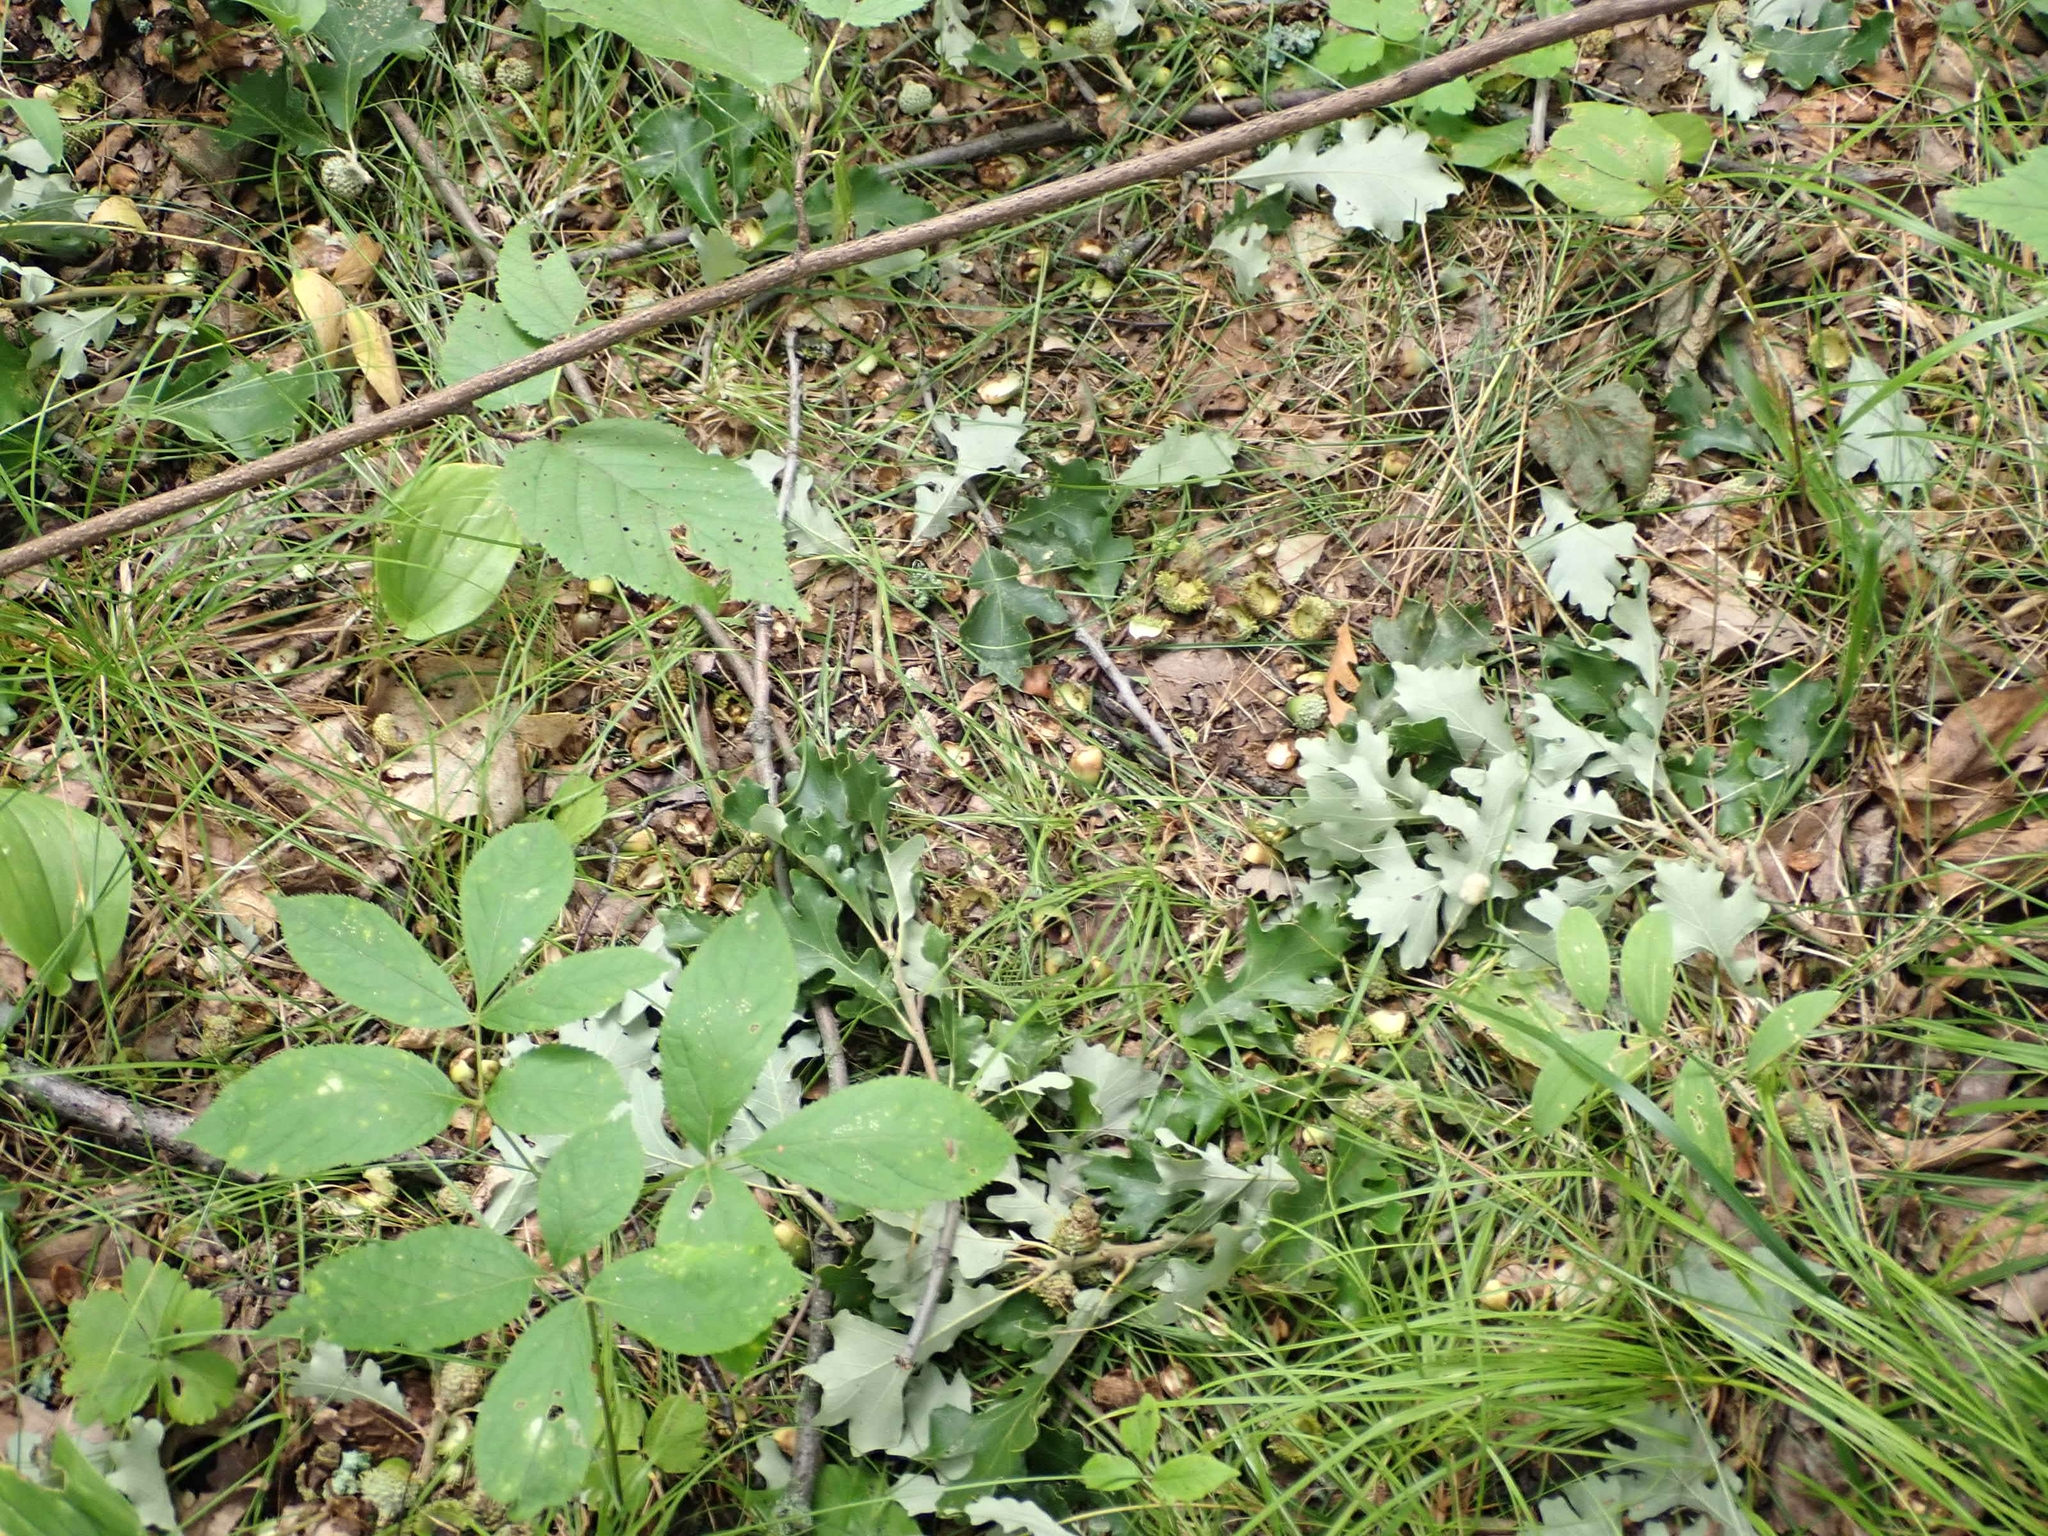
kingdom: Animalia
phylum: Chordata
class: Mammalia
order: Carnivora
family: Ursidae
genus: Ursus
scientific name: Ursus americanus
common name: American black bear
